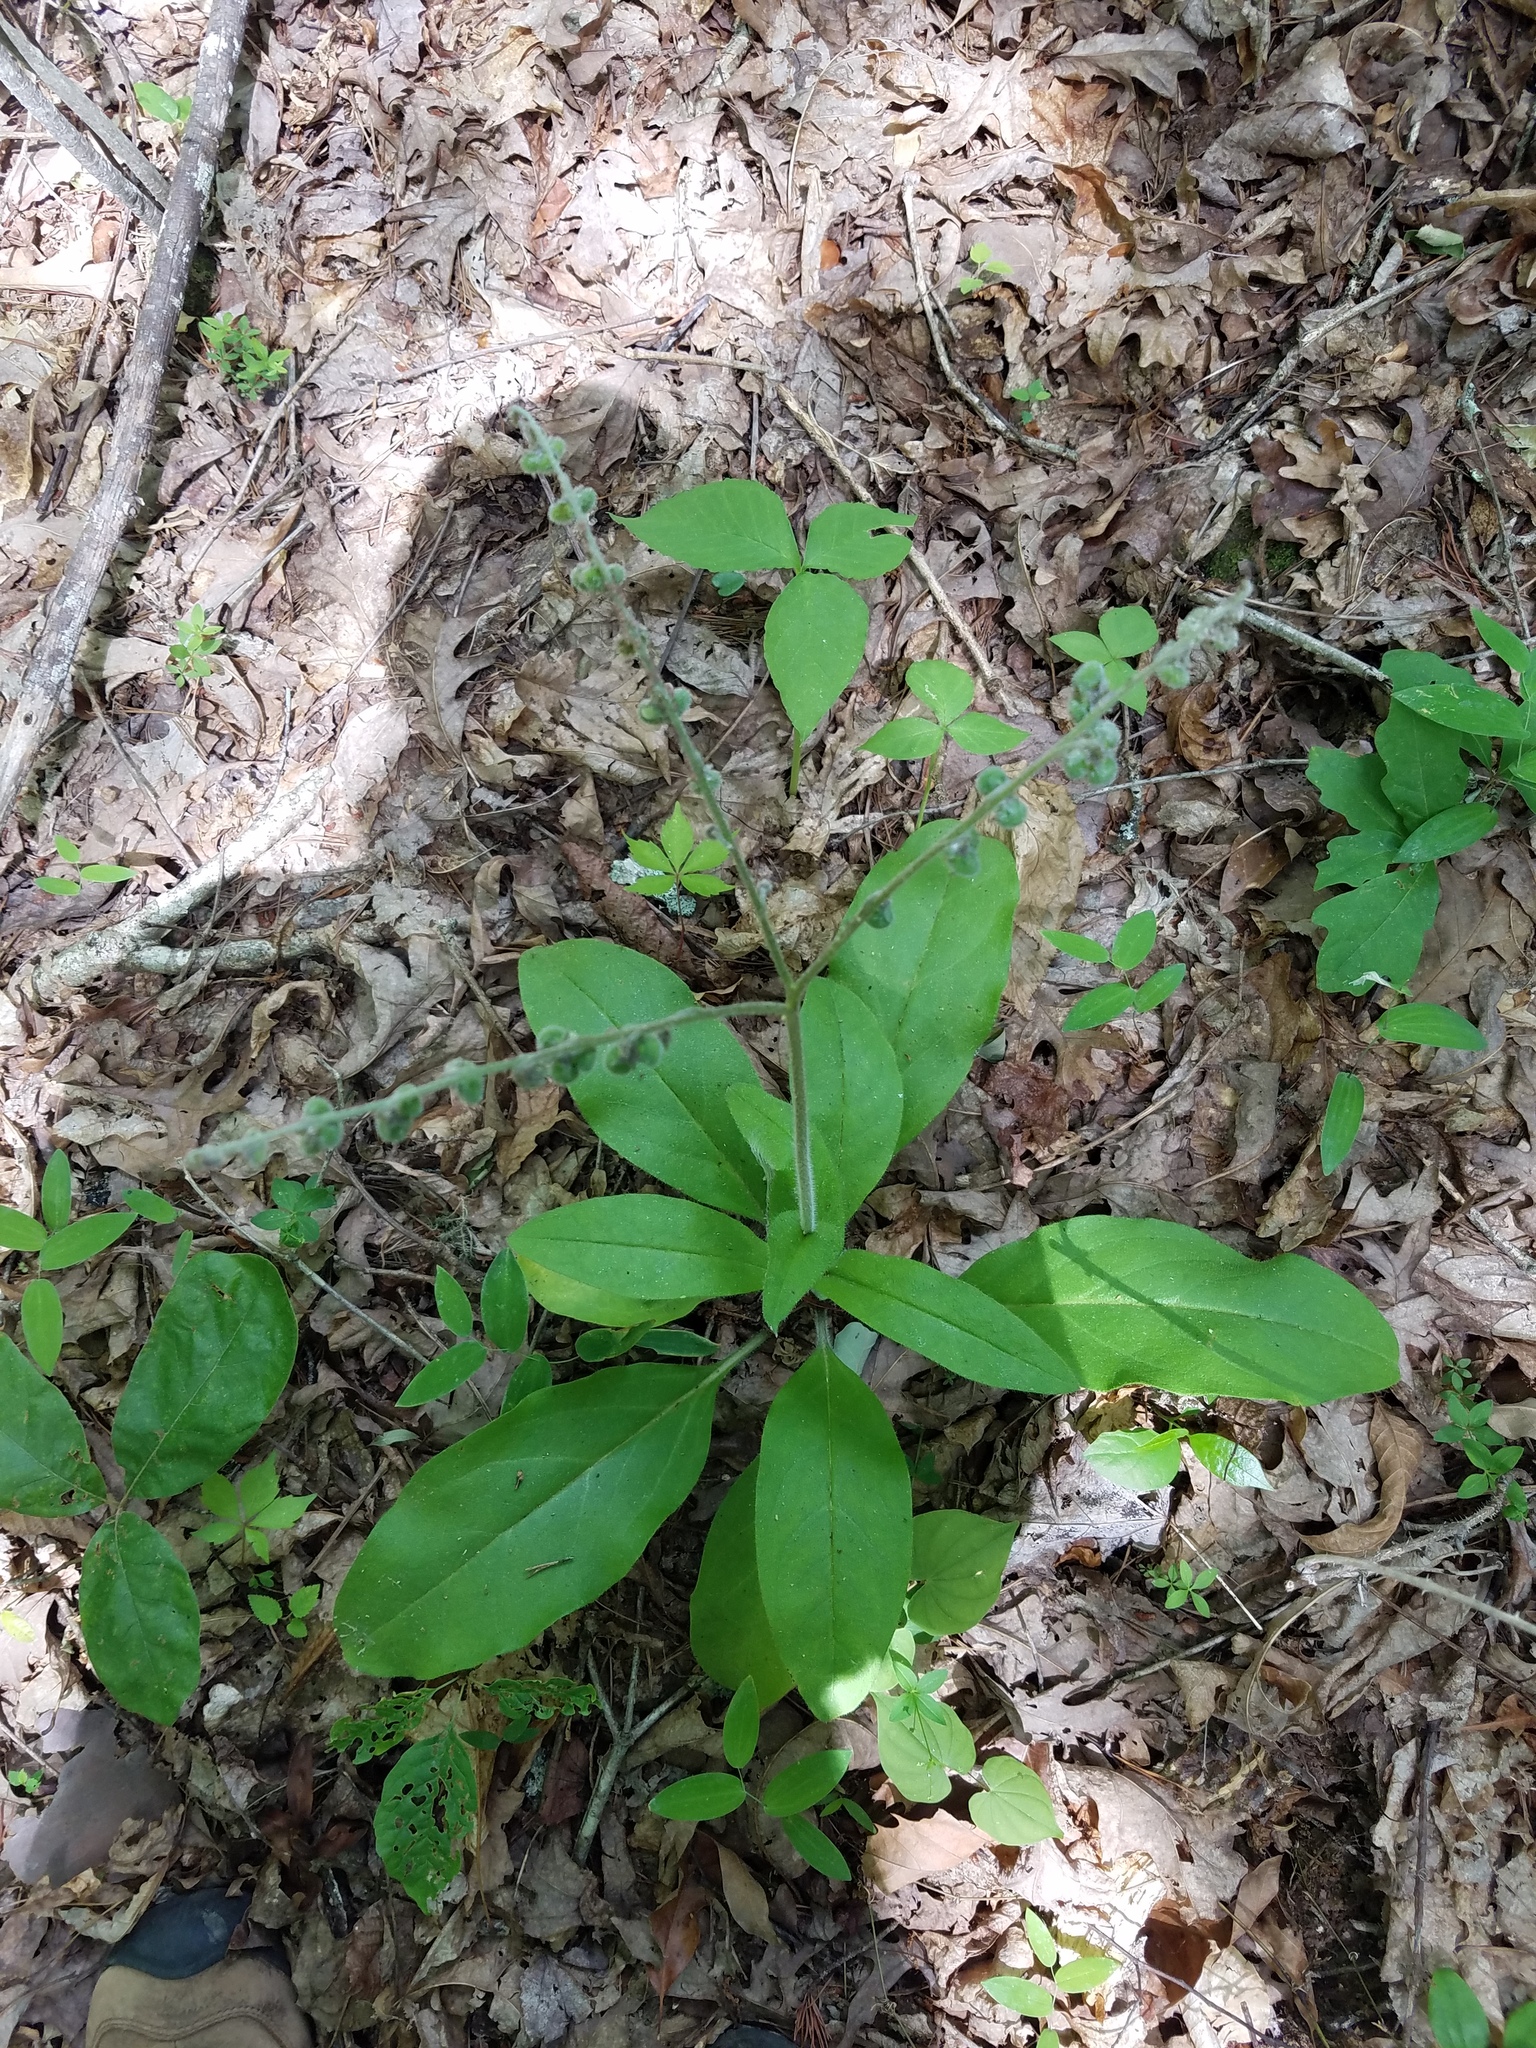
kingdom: Plantae
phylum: Tracheophyta
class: Magnoliopsida
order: Boraginales
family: Boraginaceae
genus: Andersonglossum
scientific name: Andersonglossum virginianum
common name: Wild comfrey
